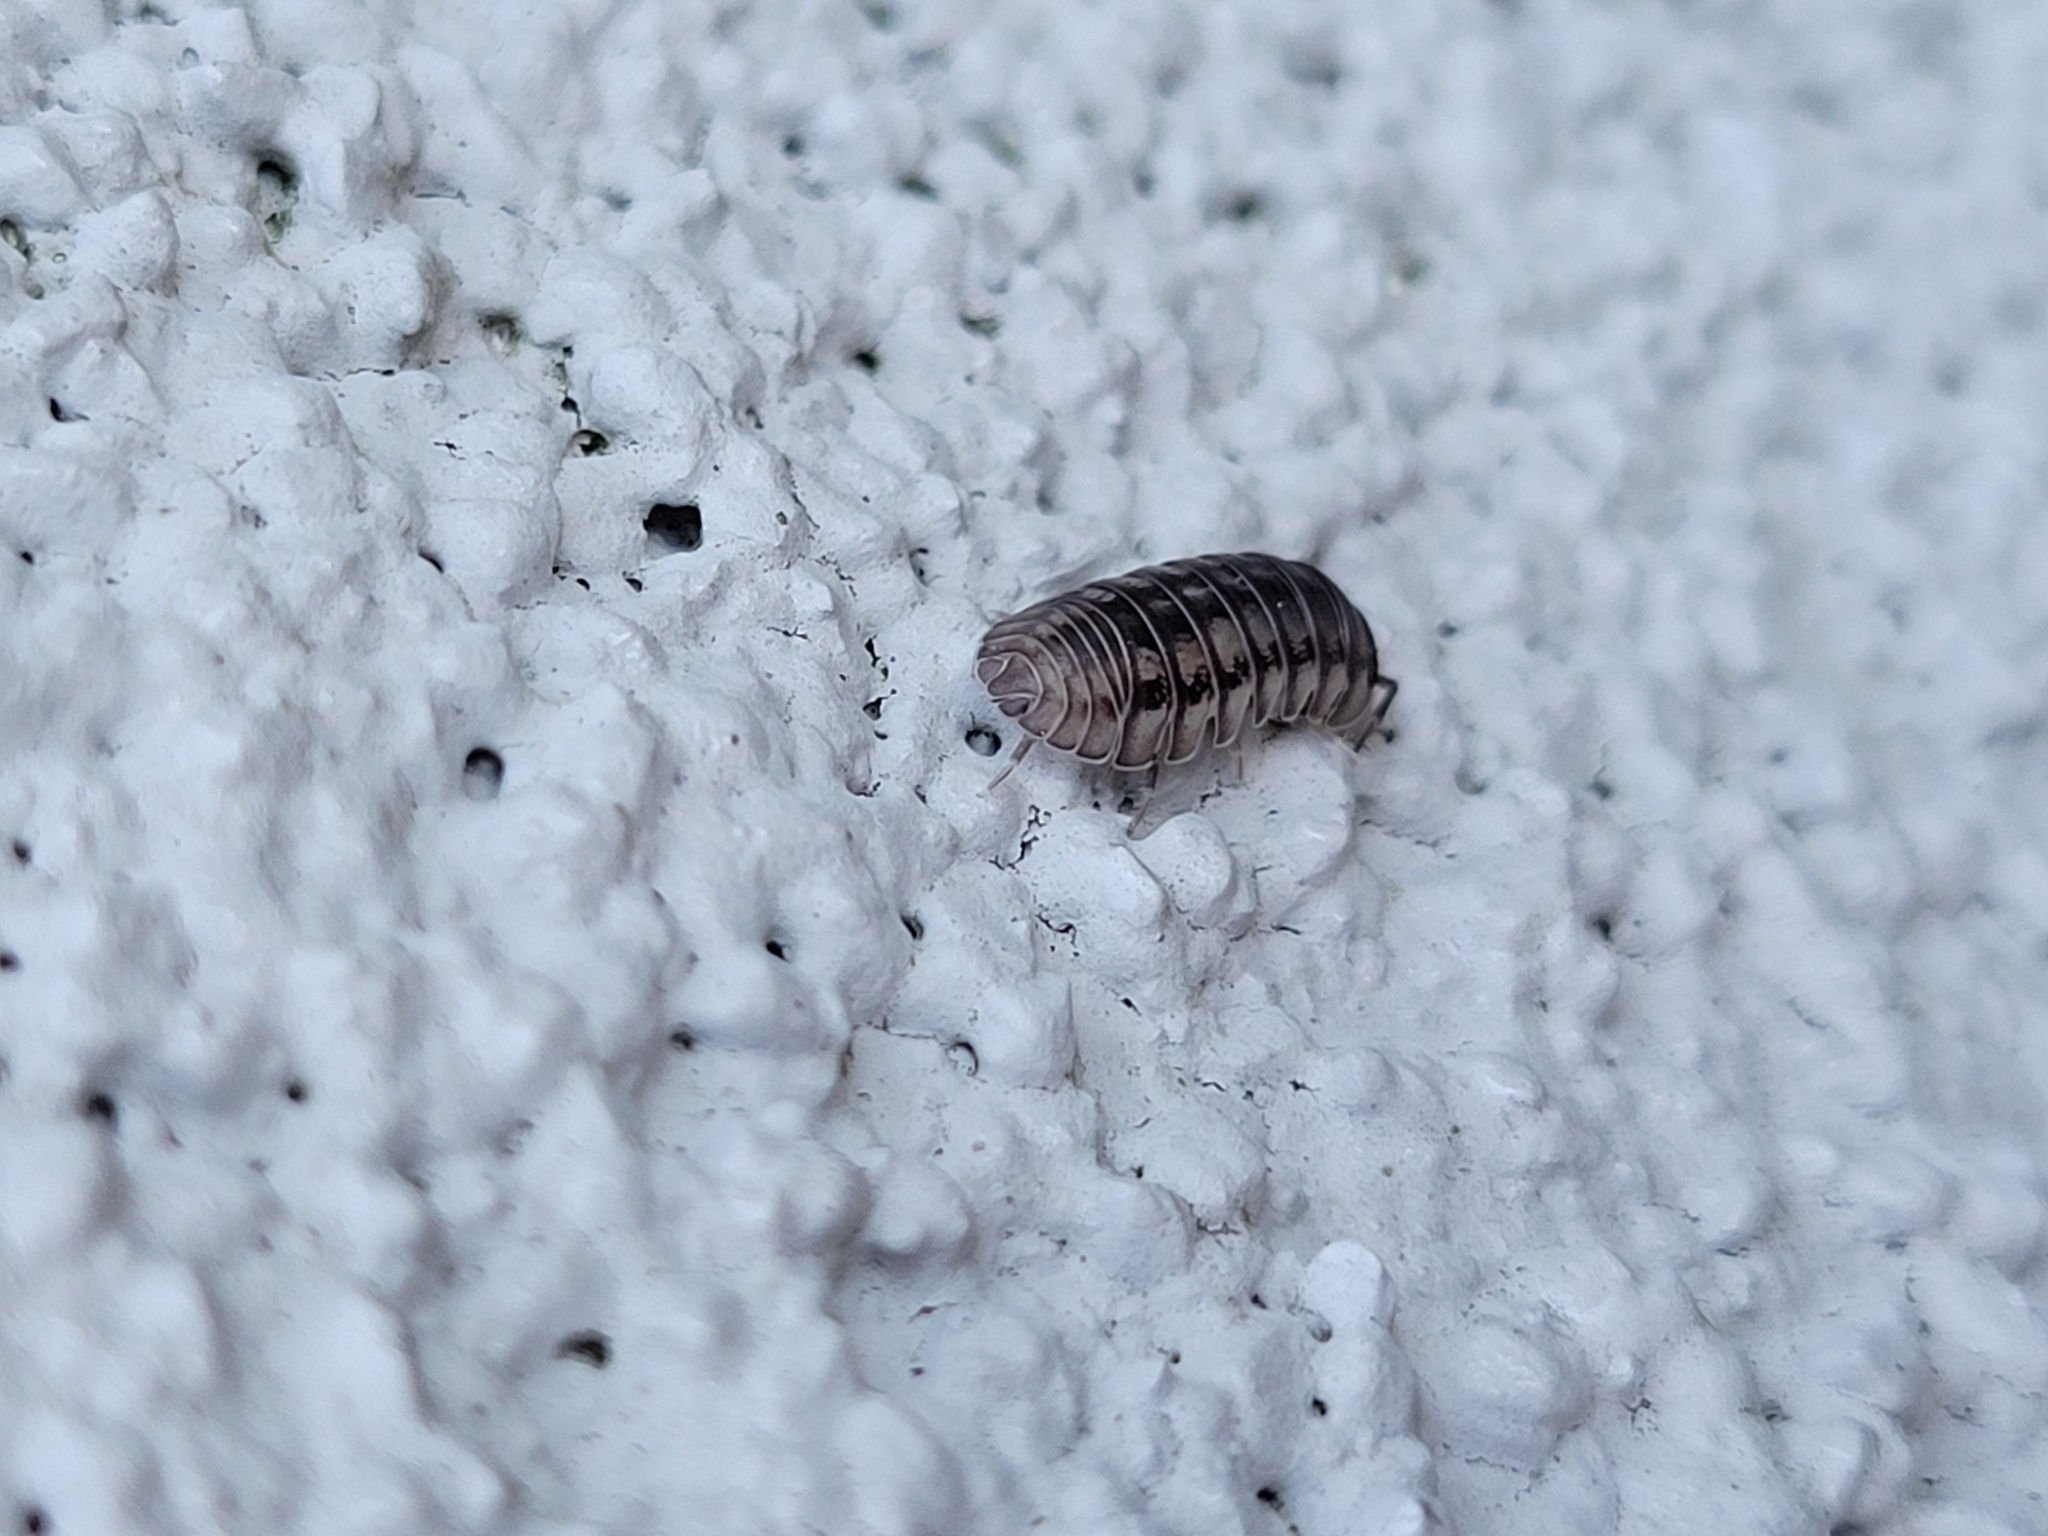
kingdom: Animalia
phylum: Arthropoda
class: Malacostraca
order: Isopoda
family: Armadillidiidae
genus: Armadillidium
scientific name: Armadillidium nasatum
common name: Isopod
